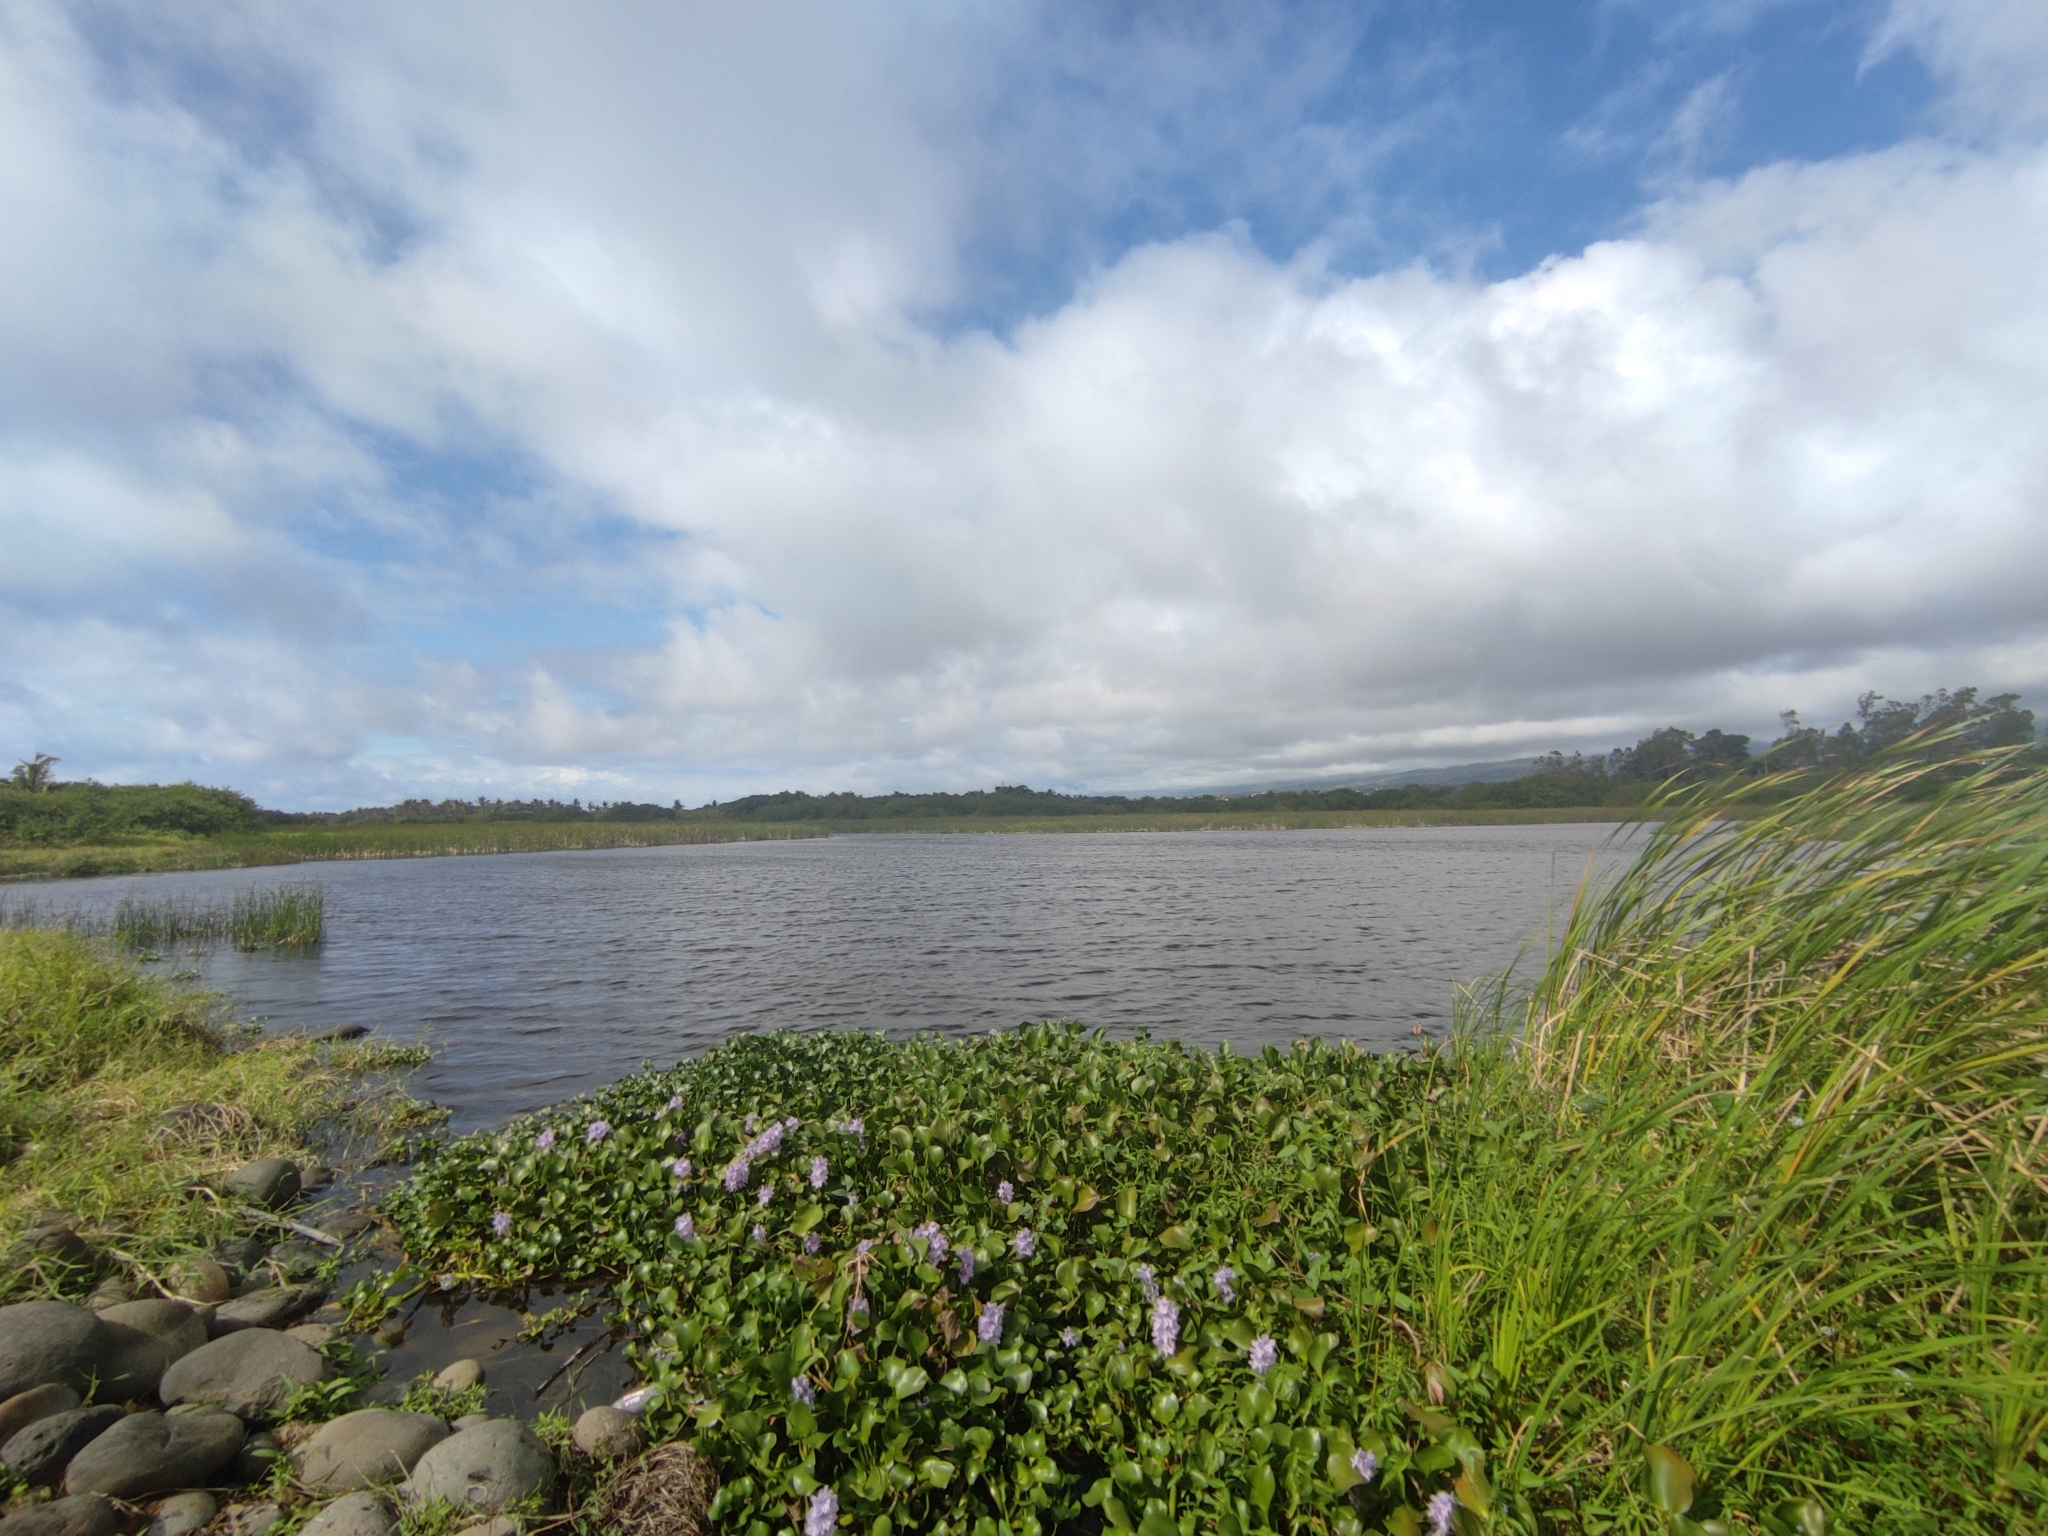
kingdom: Plantae
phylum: Tracheophyta
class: Liliopsida
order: Commelinales
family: Pontederiaceae
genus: Pontederia
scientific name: Pontederia crassipes
